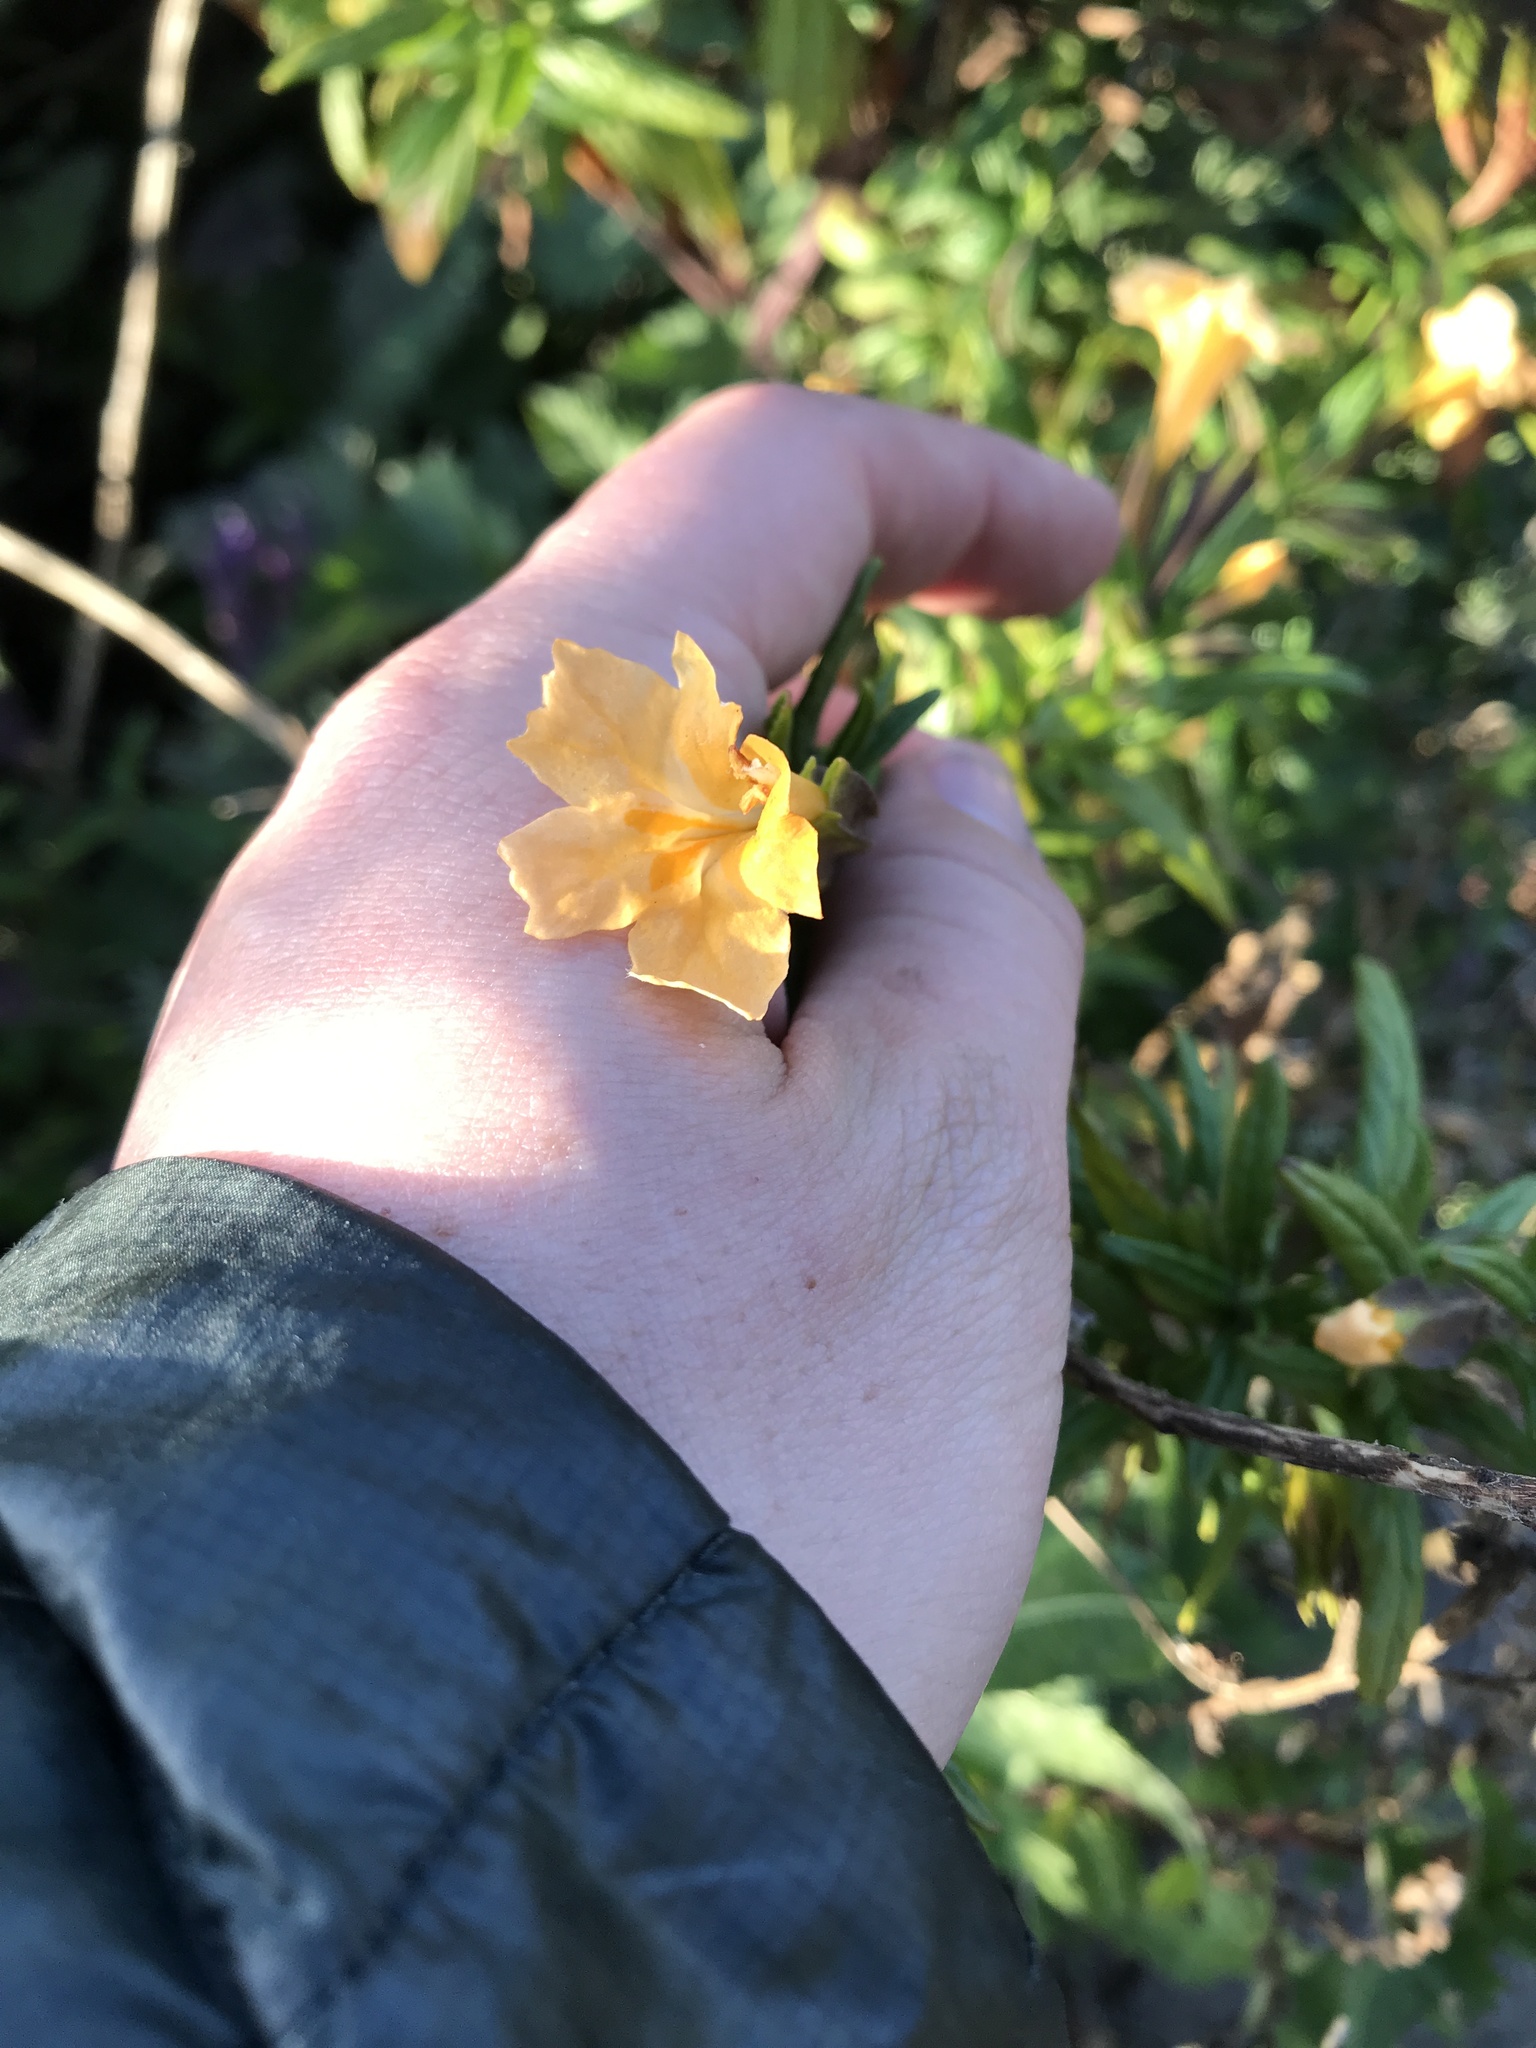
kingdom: Plantae
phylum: Tracheophyta
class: Magnoliopsida
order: Lamiales
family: Phrymaceae
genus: Diplacus
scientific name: Diplacus aurantiacus
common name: Bush monkey-flower
